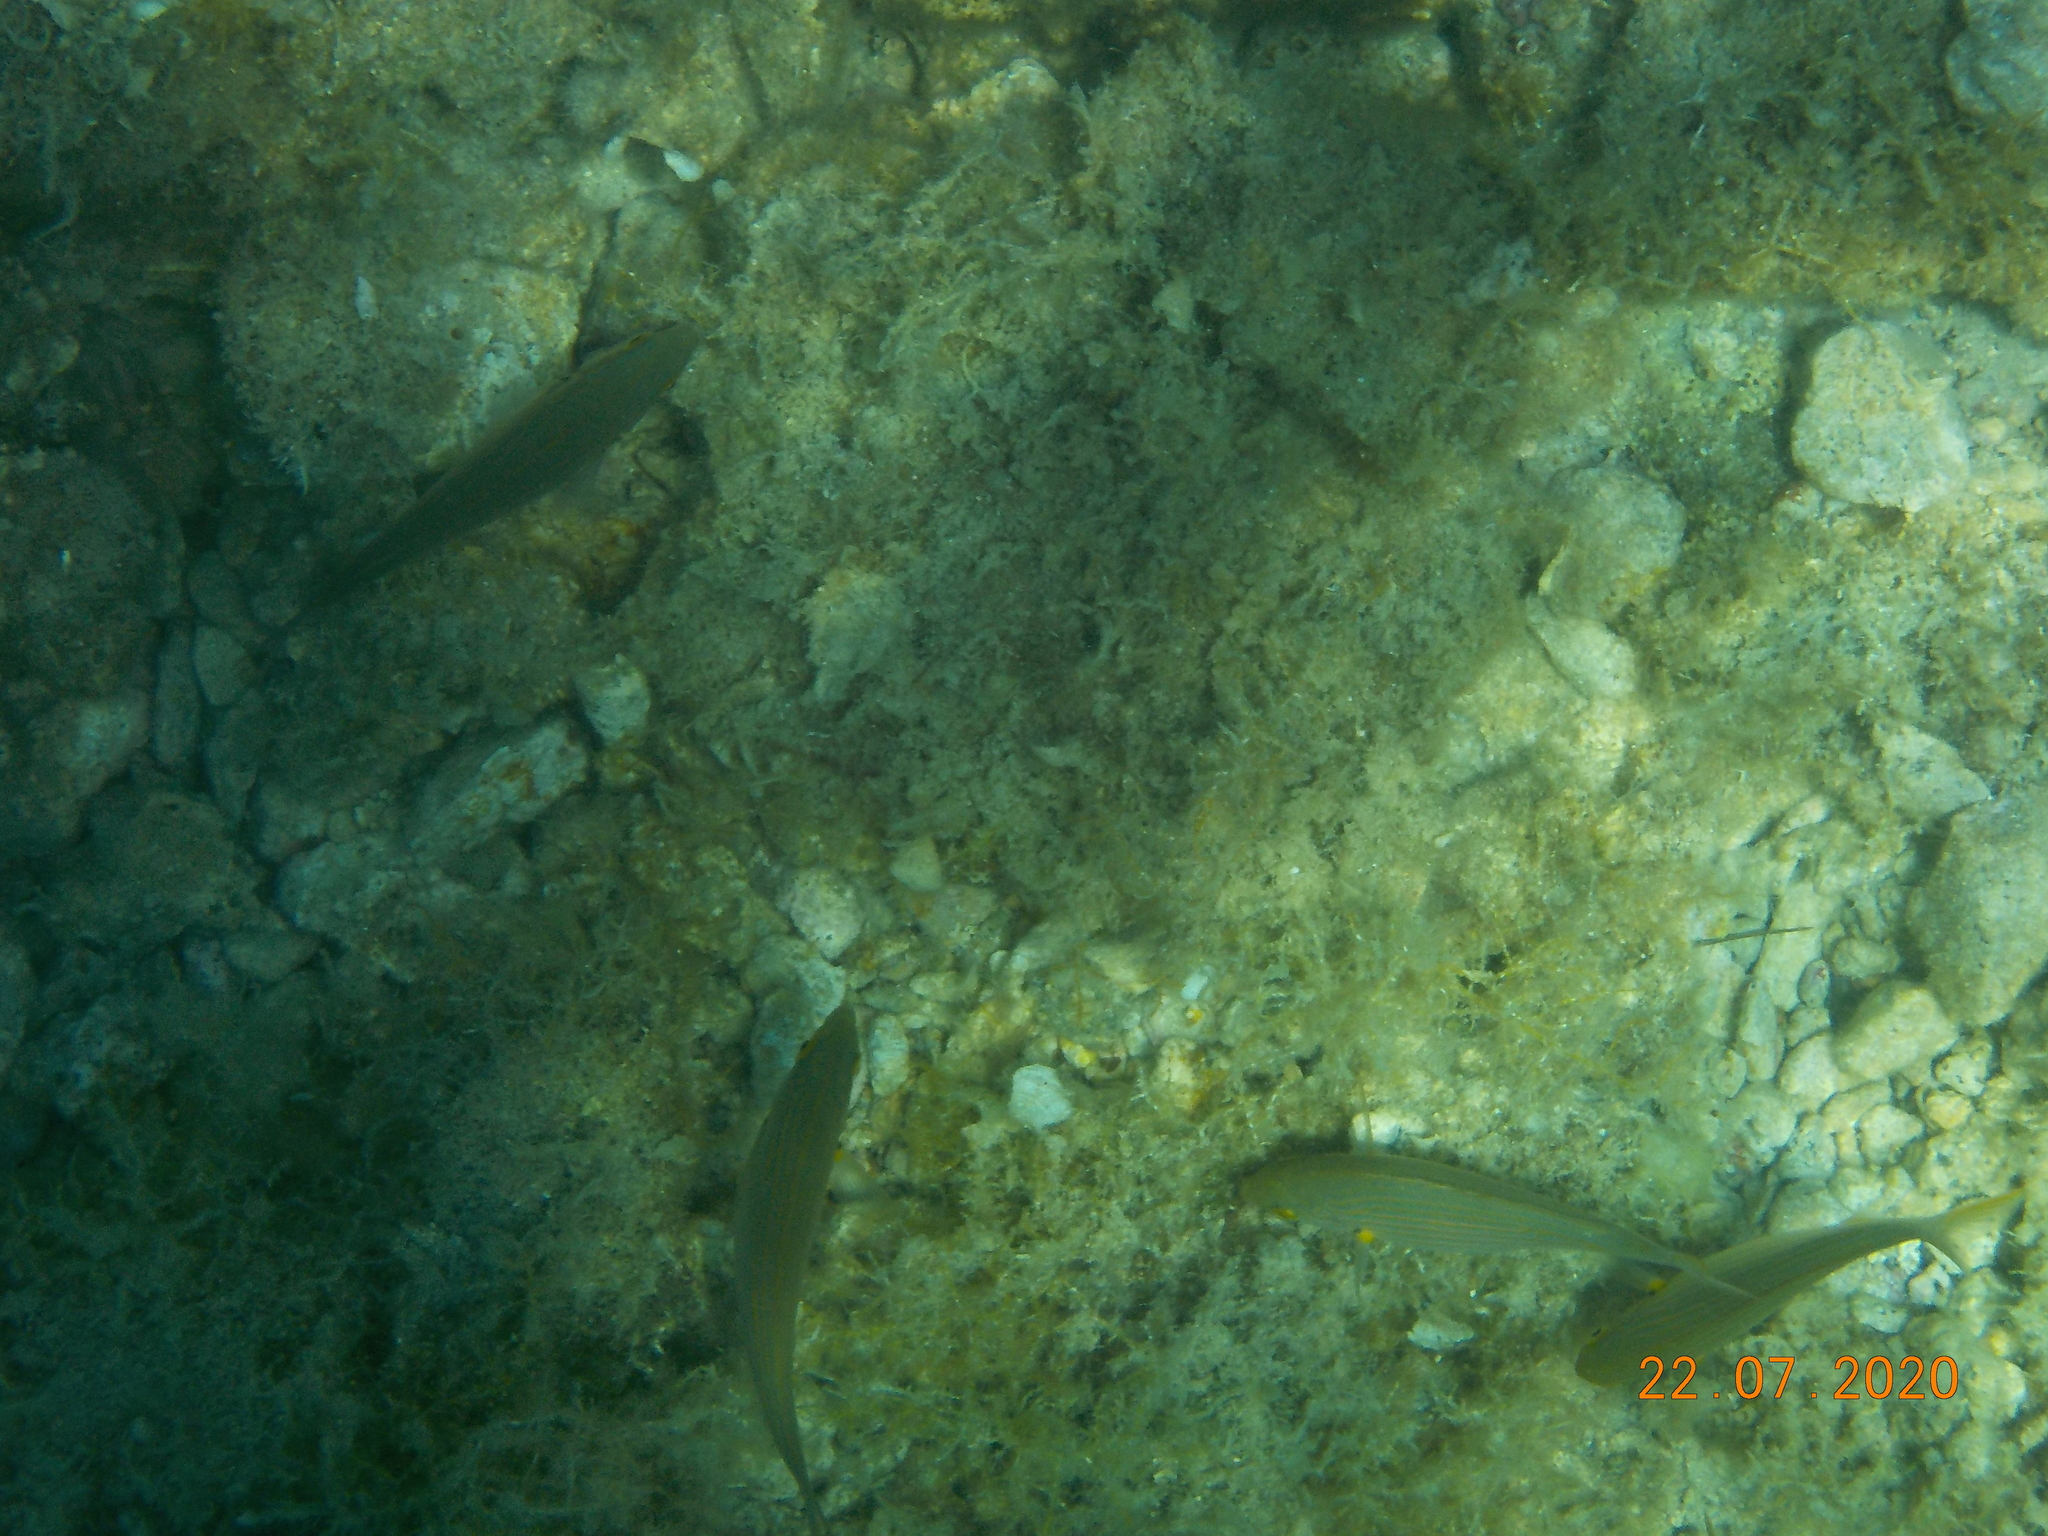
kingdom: Animalia
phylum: Chordata
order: Perciformes
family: Sparidae
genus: Sarpa
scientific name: Sarpa salpa
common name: Salema
